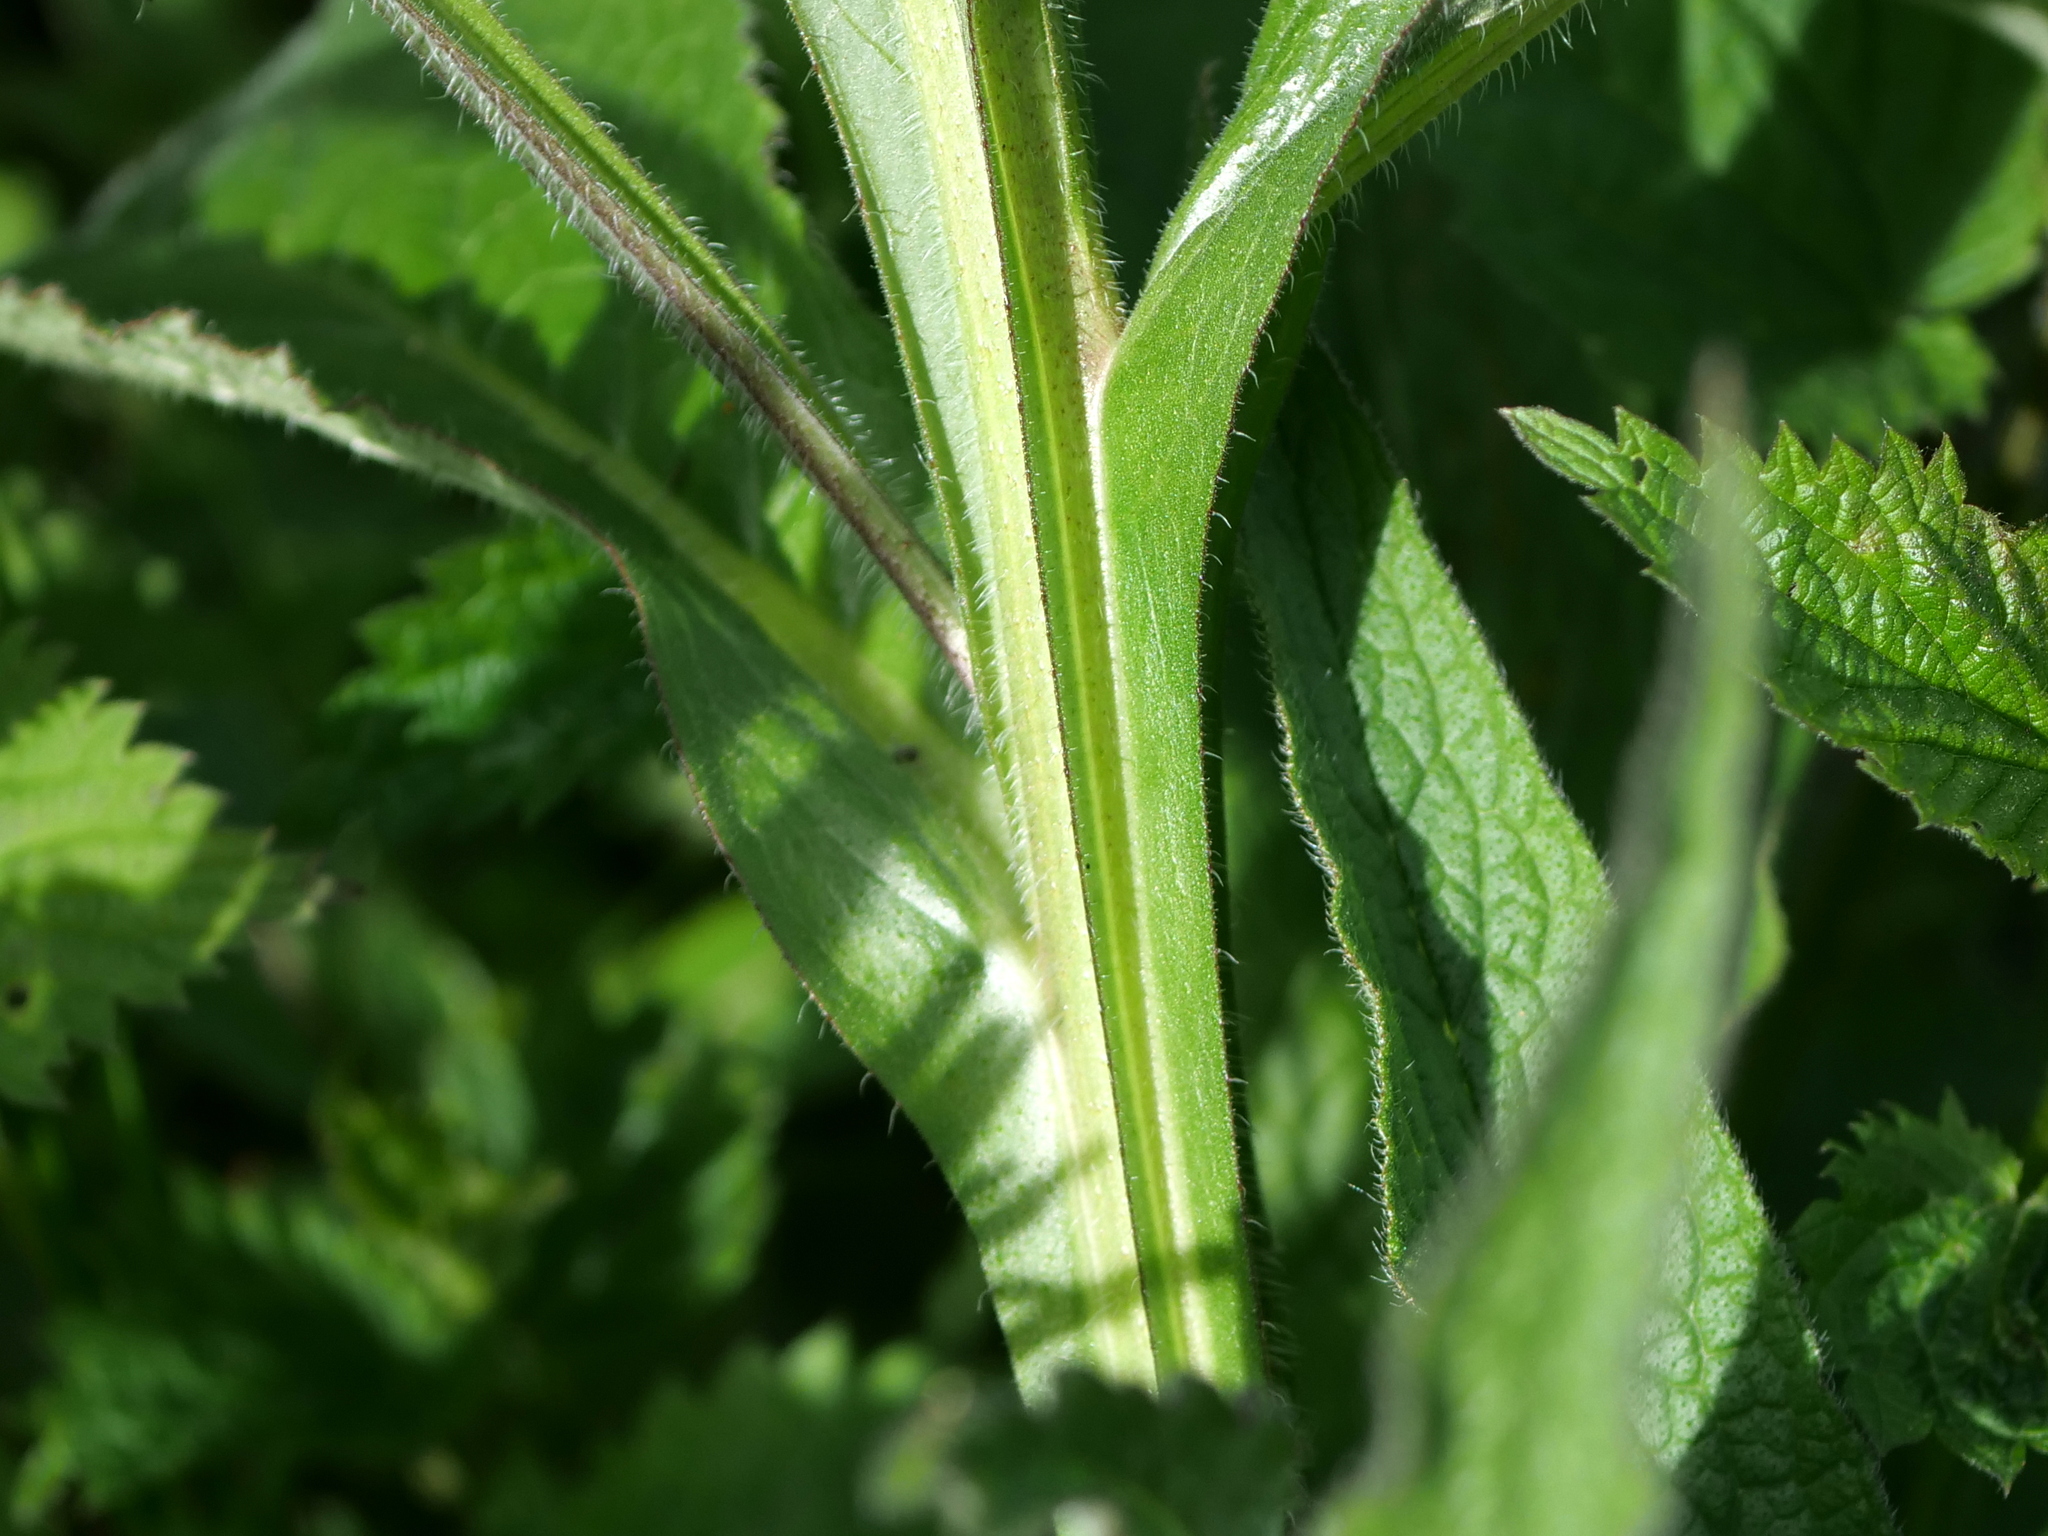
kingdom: Plantae
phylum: Tracheophyta
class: Magnoliopsida
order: Boraginales
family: Boraginaceae
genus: Symphytum
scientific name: Symphytum officinale
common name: Common comfrey
